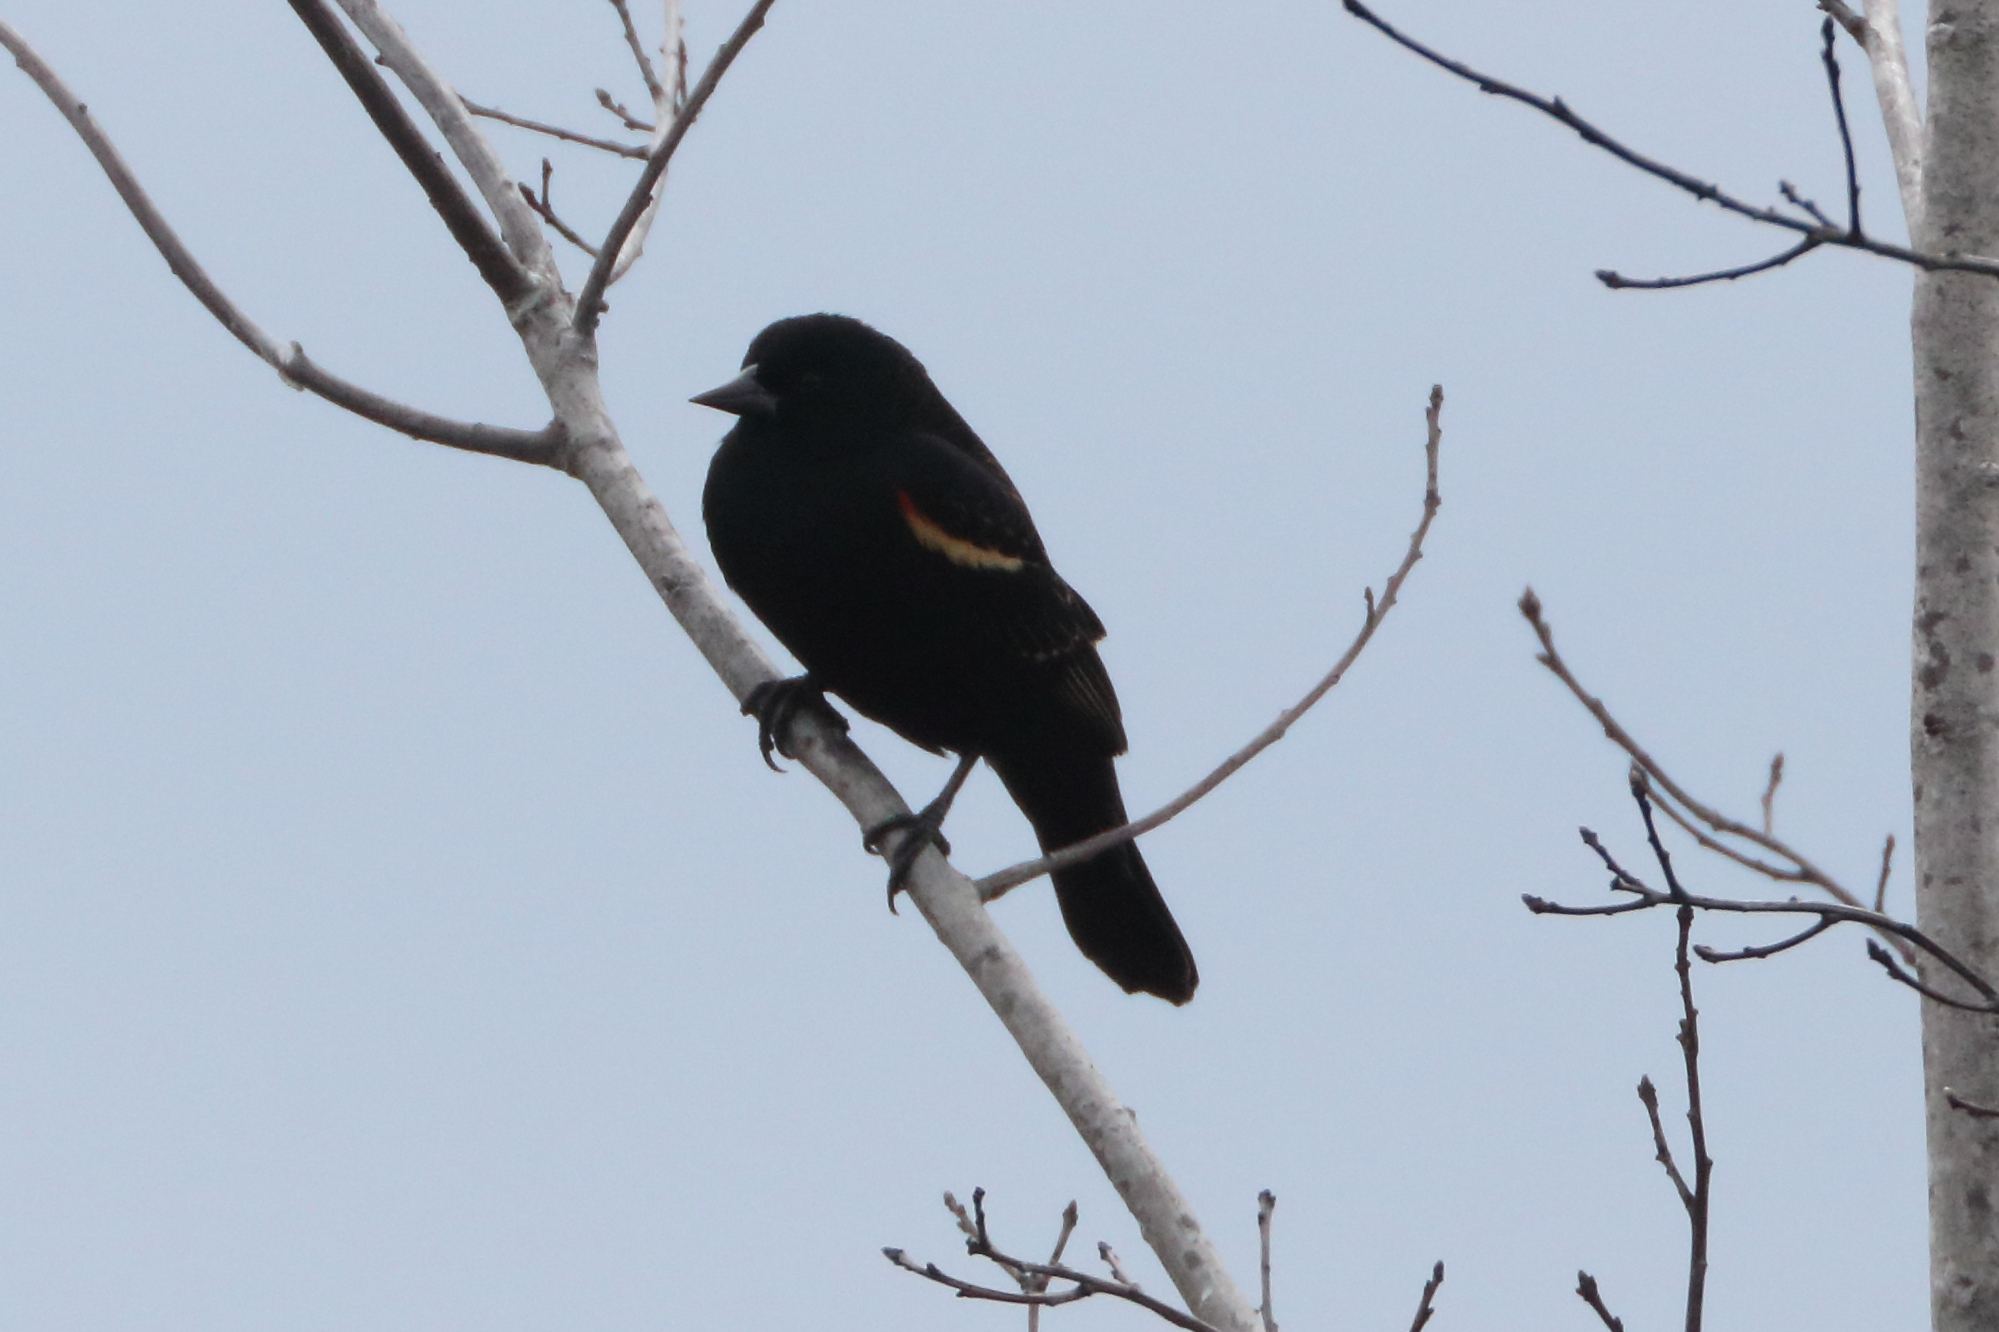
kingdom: Animalia
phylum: Chordata
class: Aves
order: Passeriformes
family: Icteridae
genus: Agelaius
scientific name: Agelaius phoeniceus
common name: Red-winged blackbird
